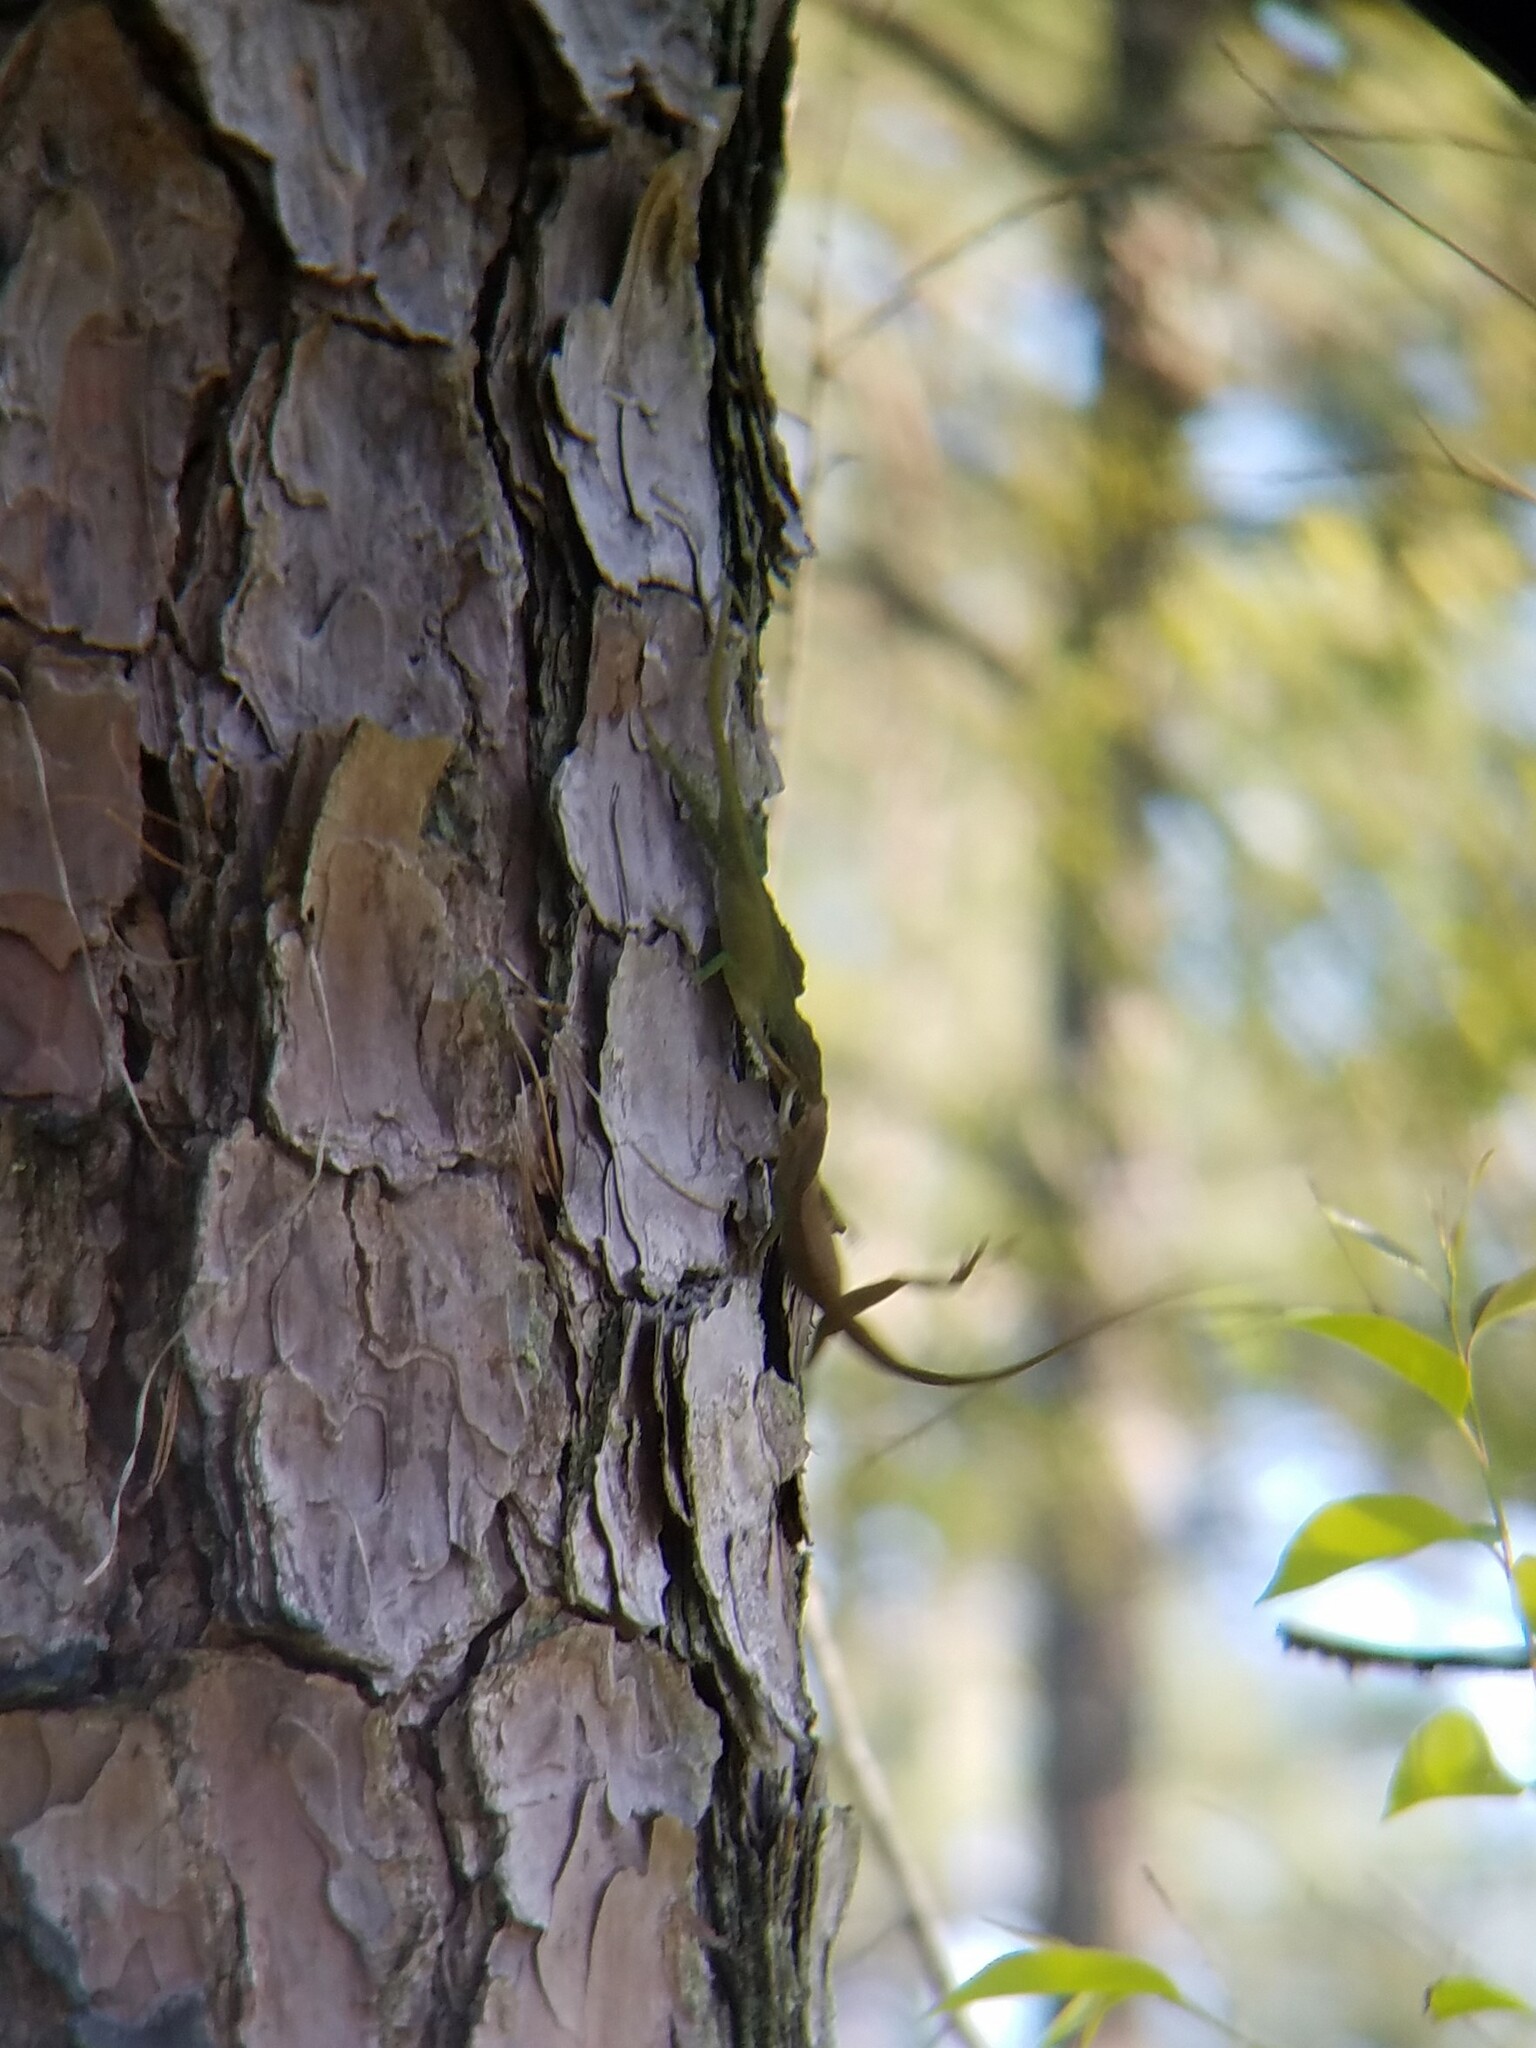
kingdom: Animalia
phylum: Chordata
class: Squamata
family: Dactyloidae
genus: Anolis
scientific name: Anolis carolinensis
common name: Green anole
